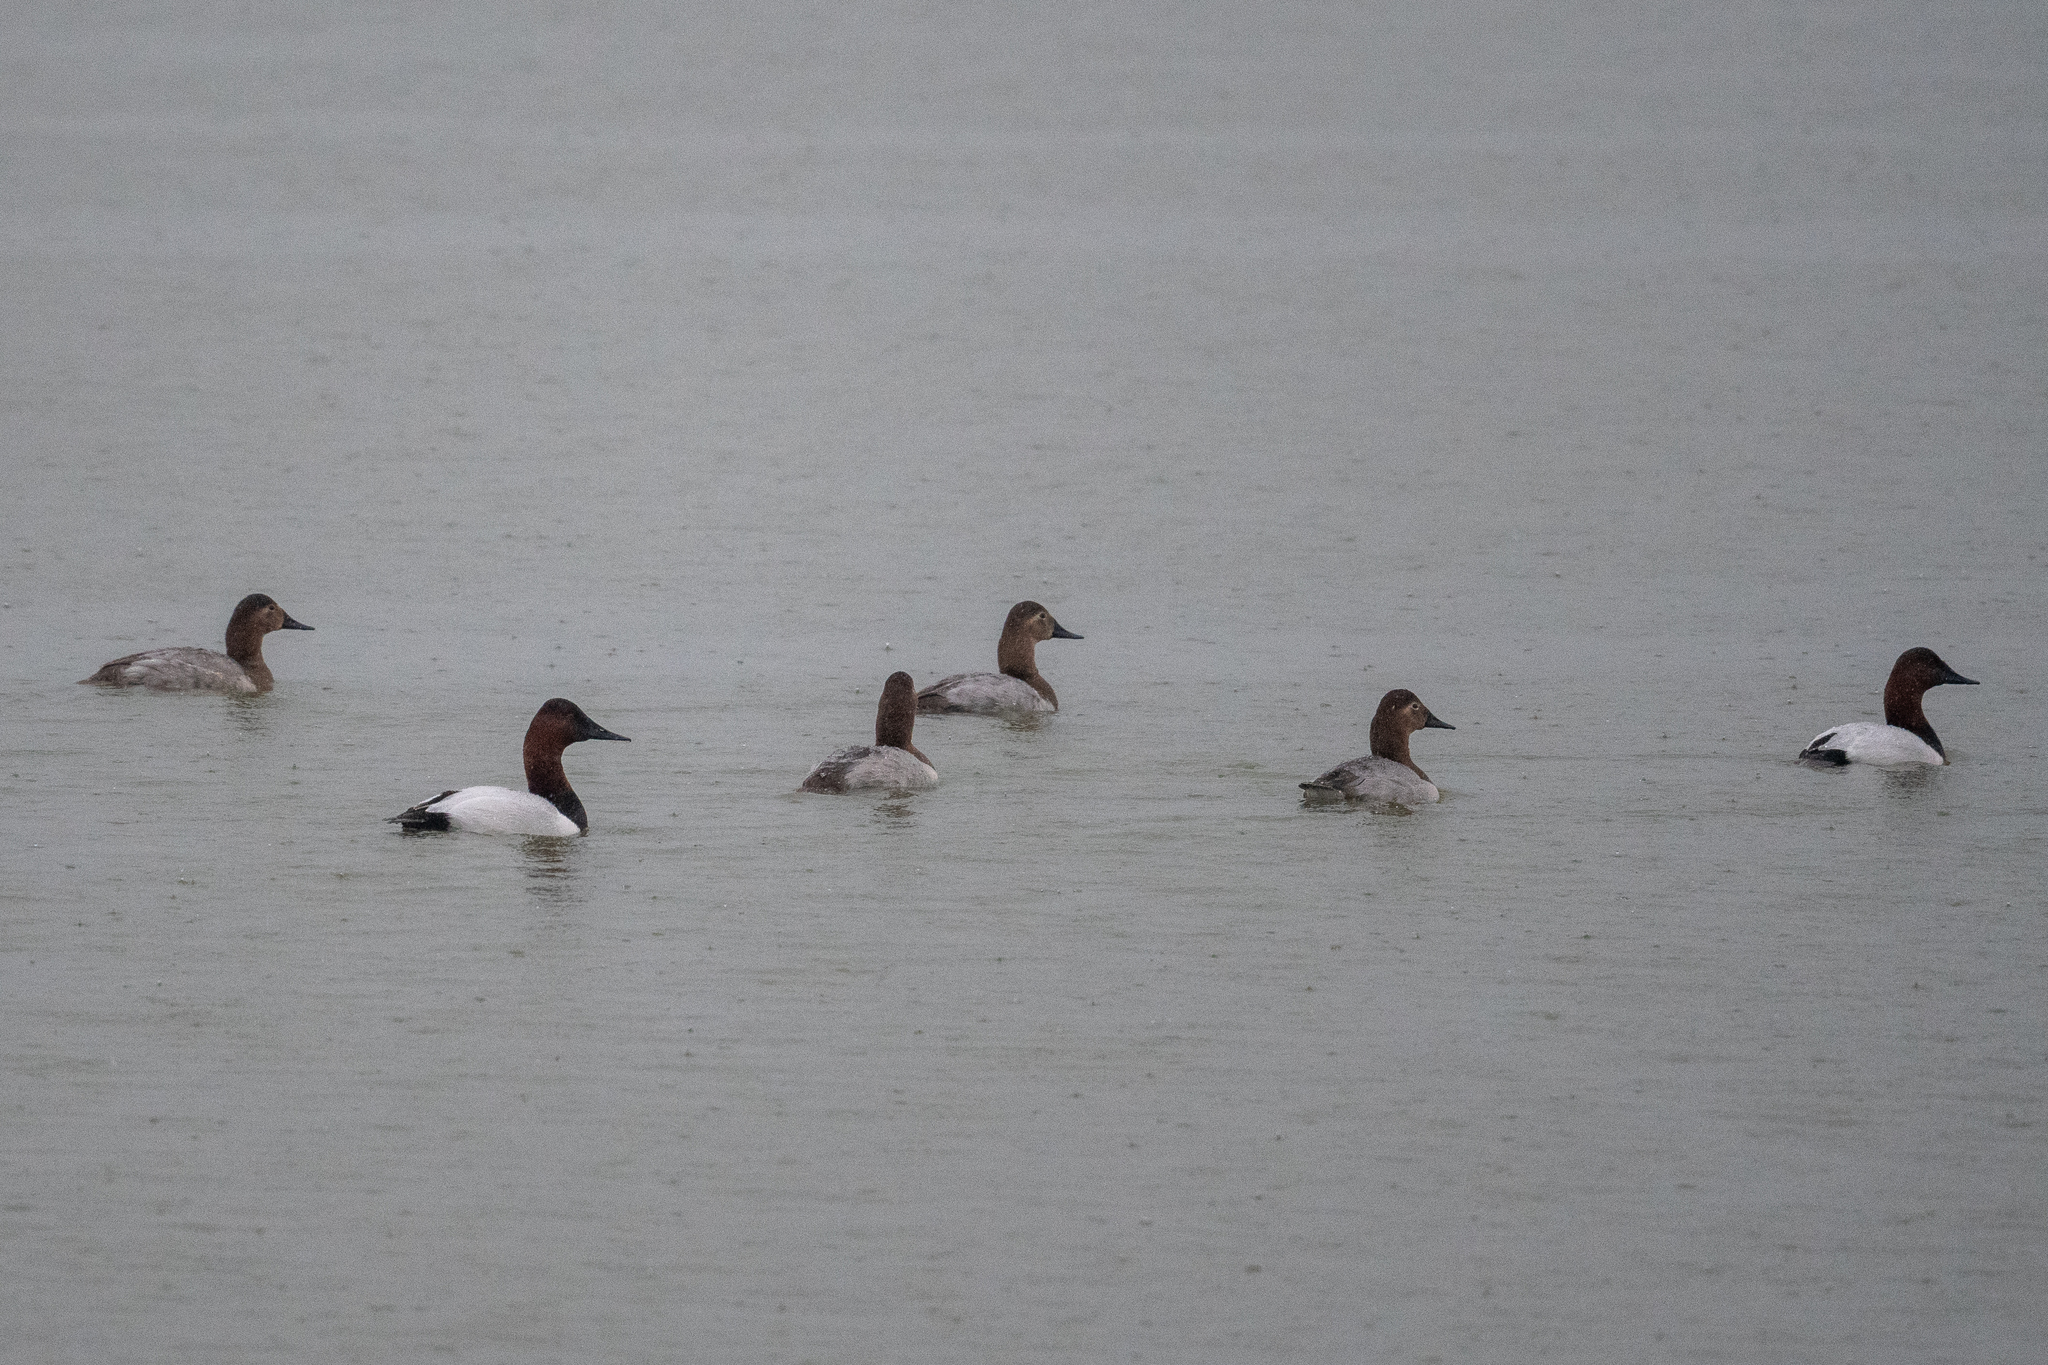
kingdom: Animalia
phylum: Chordata
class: Aves
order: Anseriformes
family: Anatidae
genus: Aythya
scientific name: Aythya valisineria
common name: Canvasback
